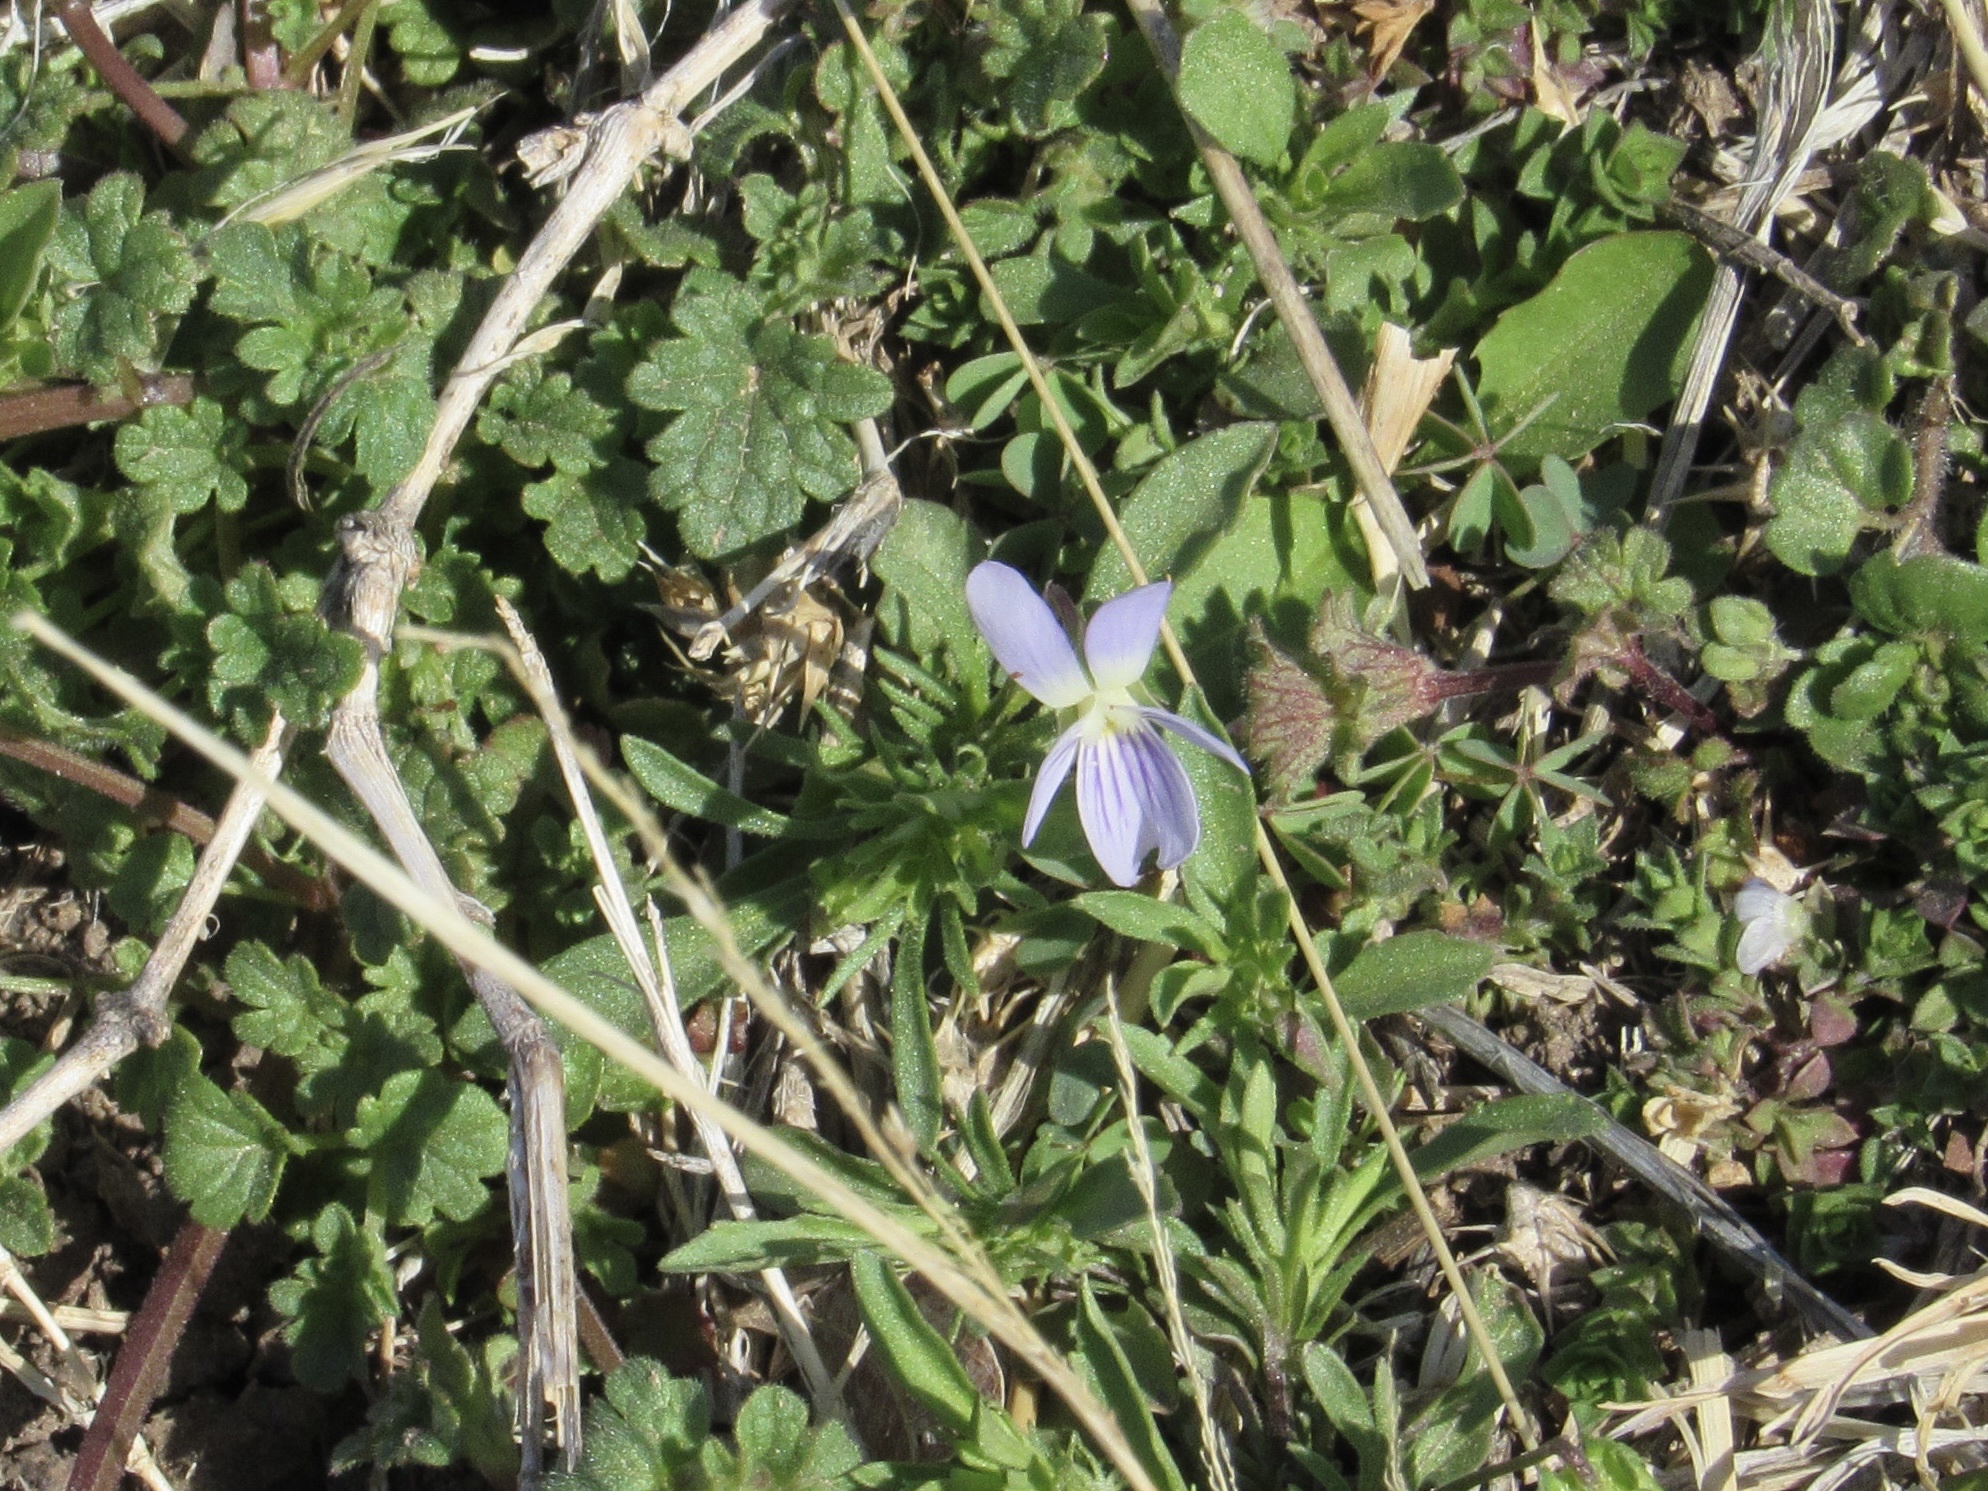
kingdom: Plantae
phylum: Tracheophyta
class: Magnoliopsida
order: Malpighiales
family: Violaceae
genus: Viola
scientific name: Viola rafinesquei
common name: American field pansy
